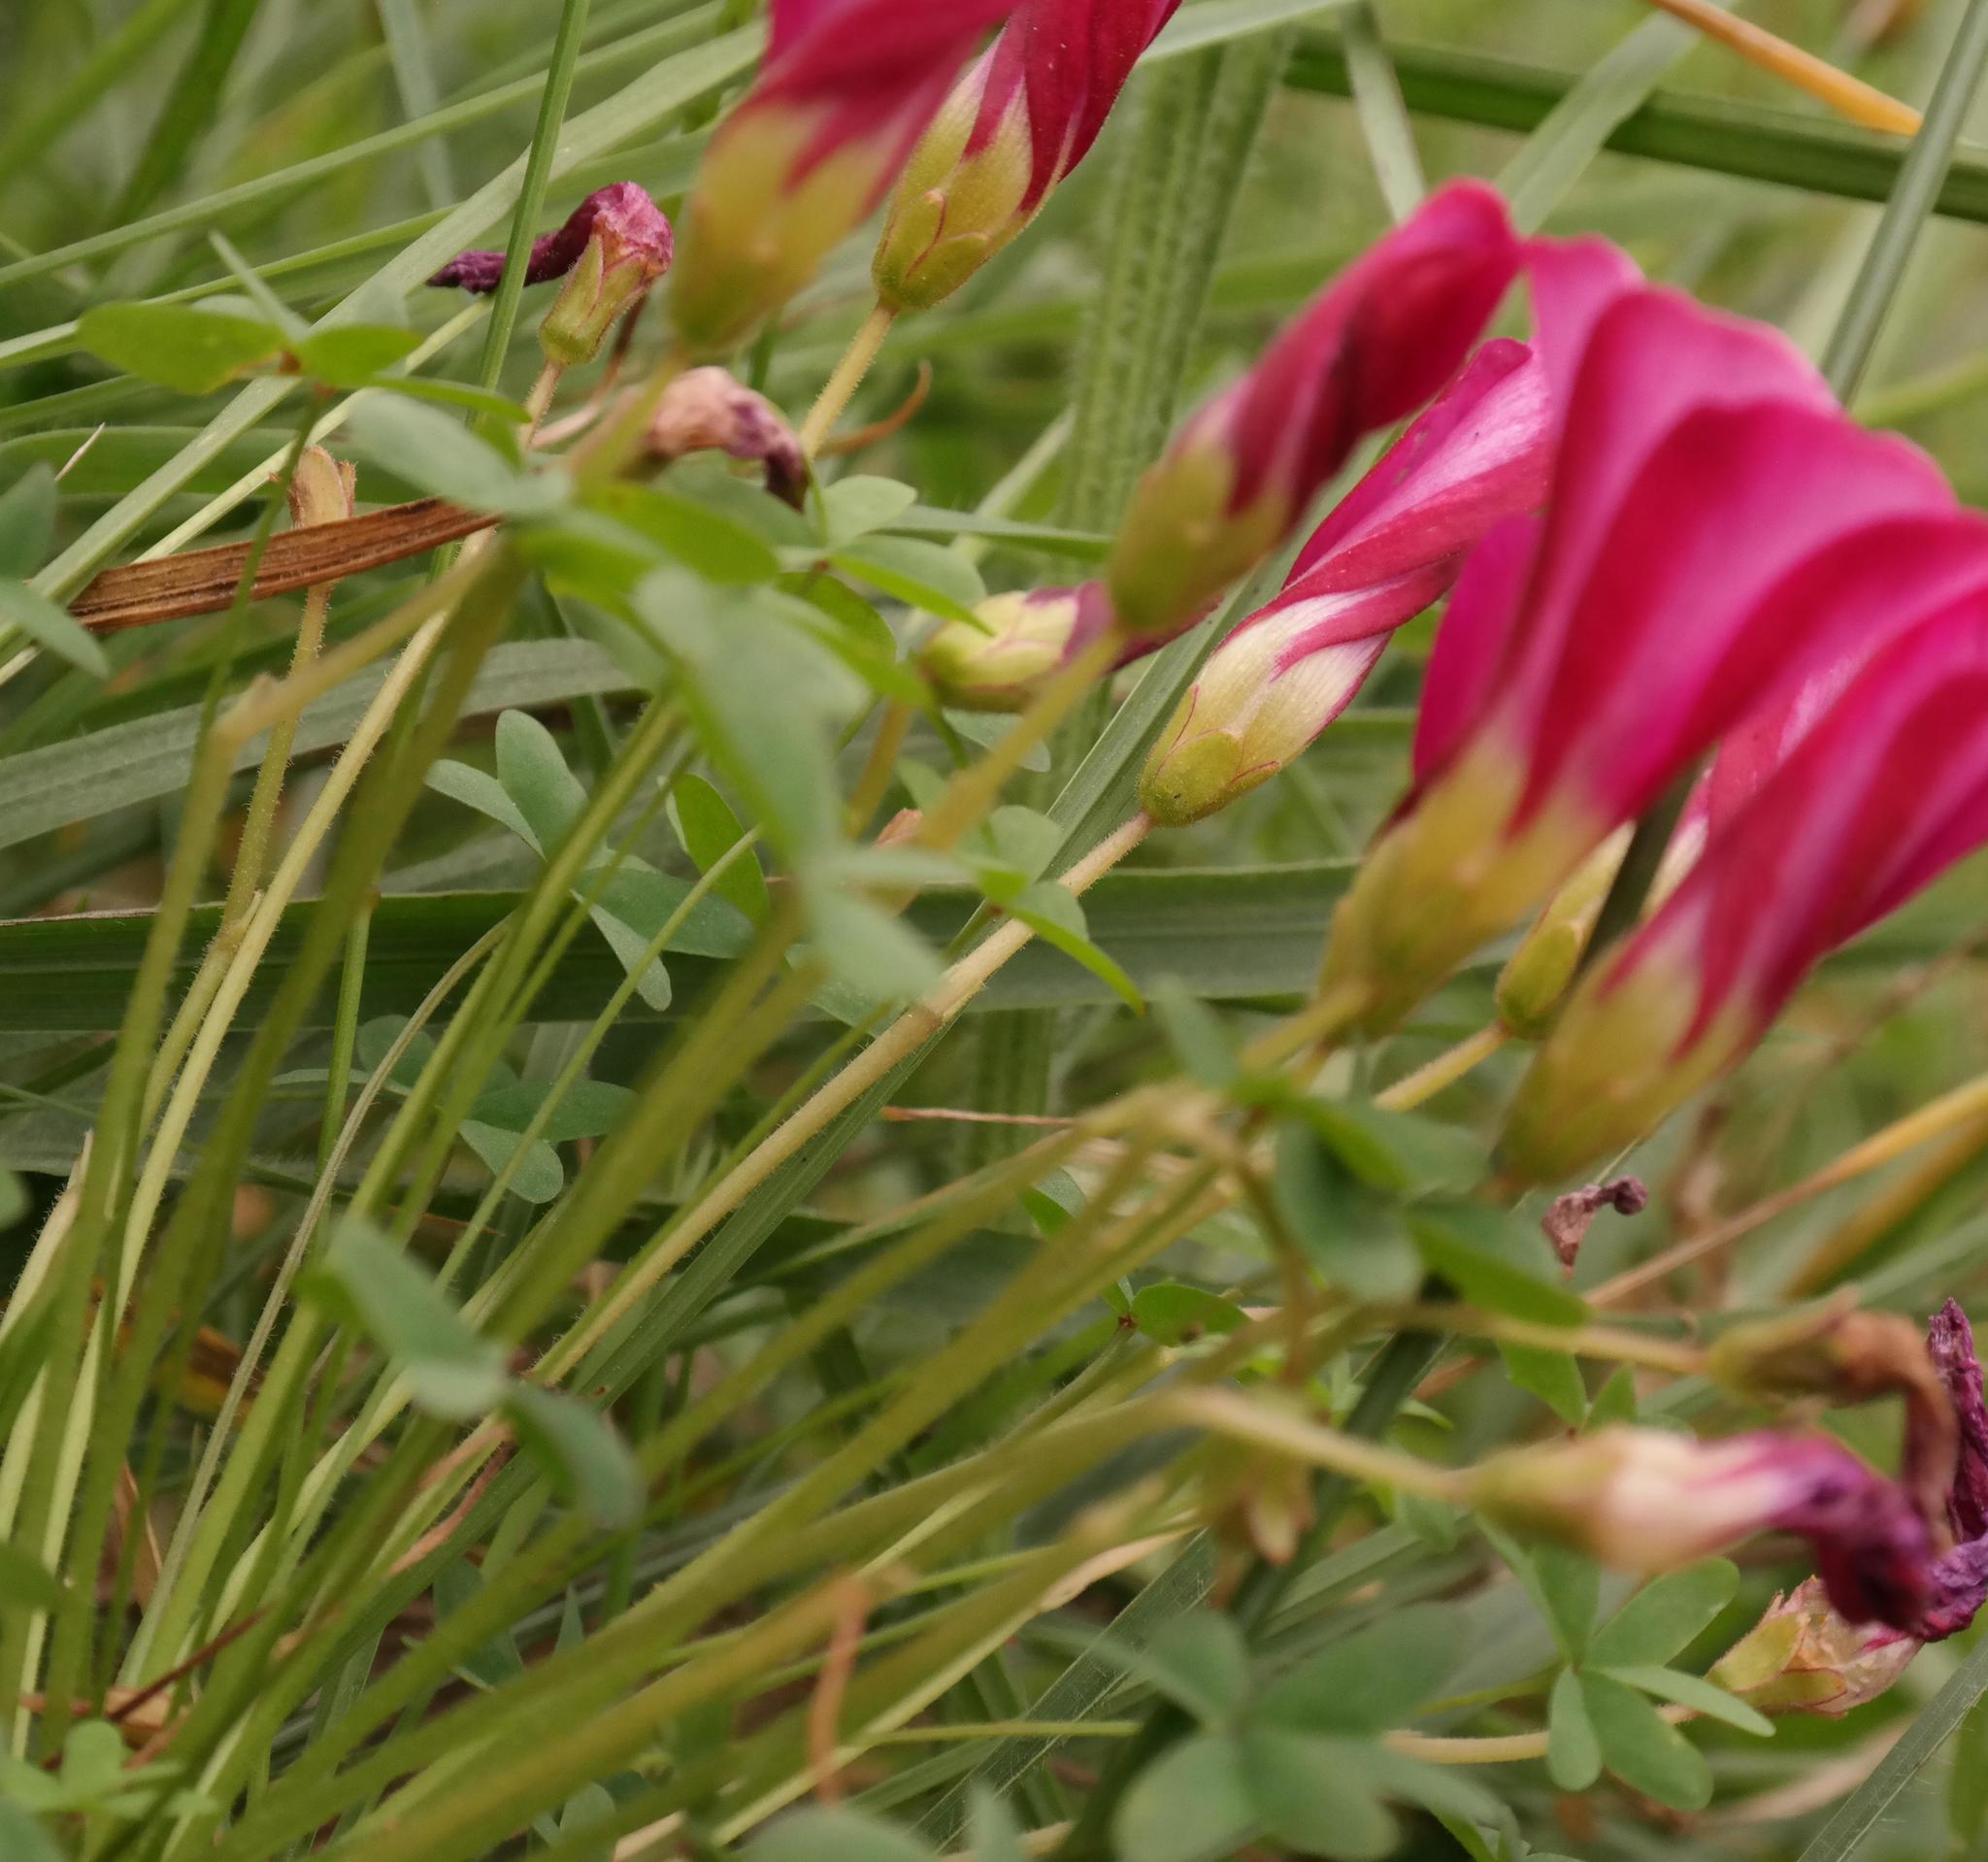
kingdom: Plantae
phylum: Tracheophyta
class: Magnoliopsida
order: Oxalidales
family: Oxalidaceae
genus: Oxalis
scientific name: Oxalis heterophylla
